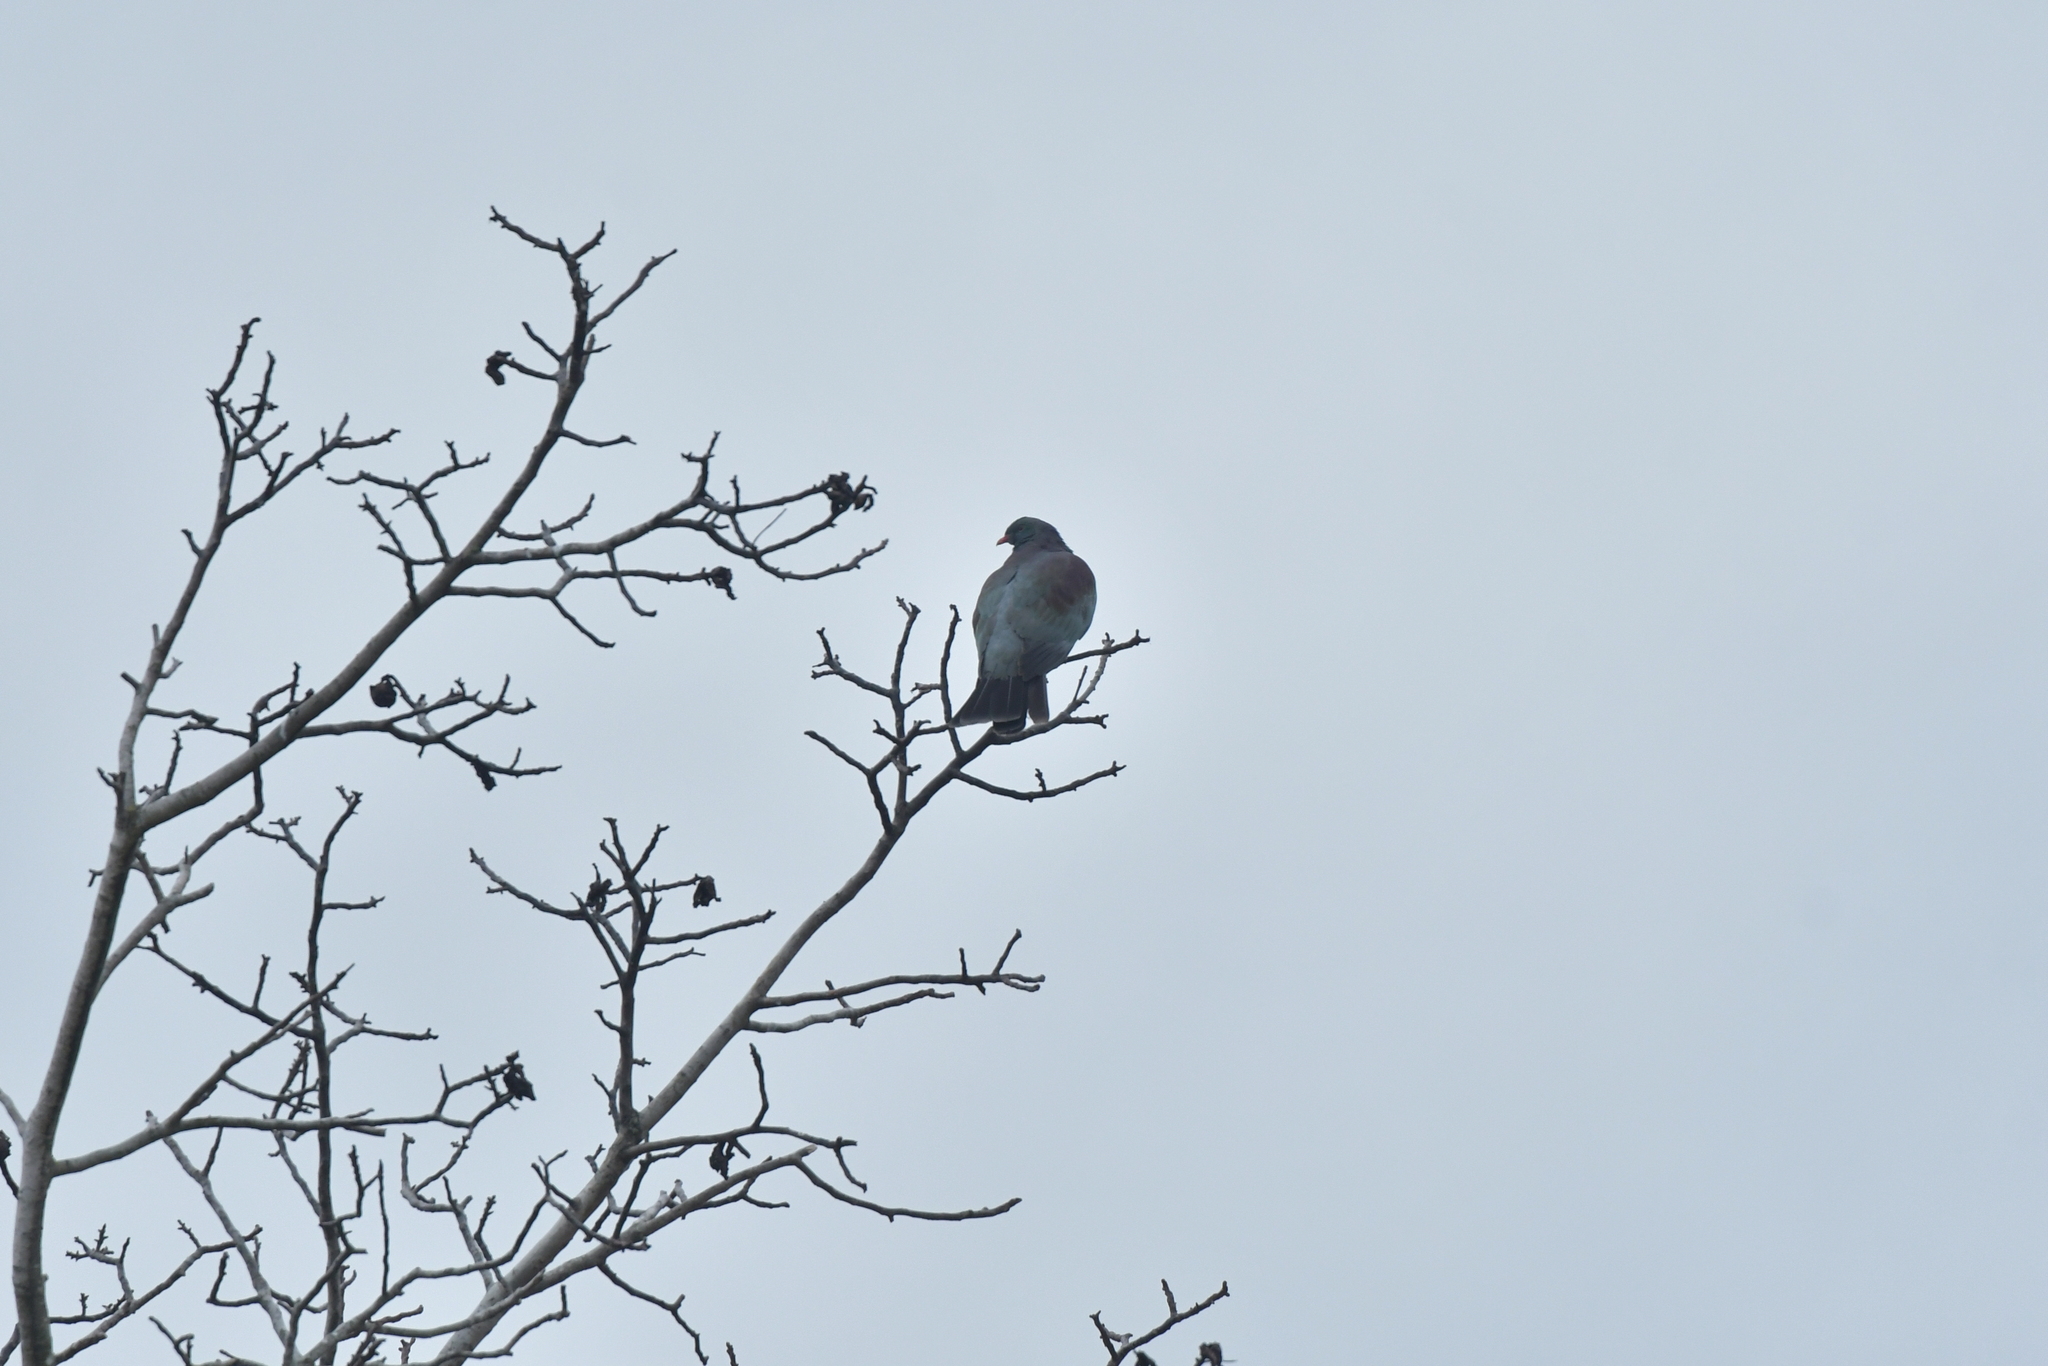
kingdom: Animalia
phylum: Chordata
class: Aves
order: Columbiformes
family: Columbidae
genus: Hemiphaga
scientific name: Hemiphaga novaeseelandiae
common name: New zealand pigeon
